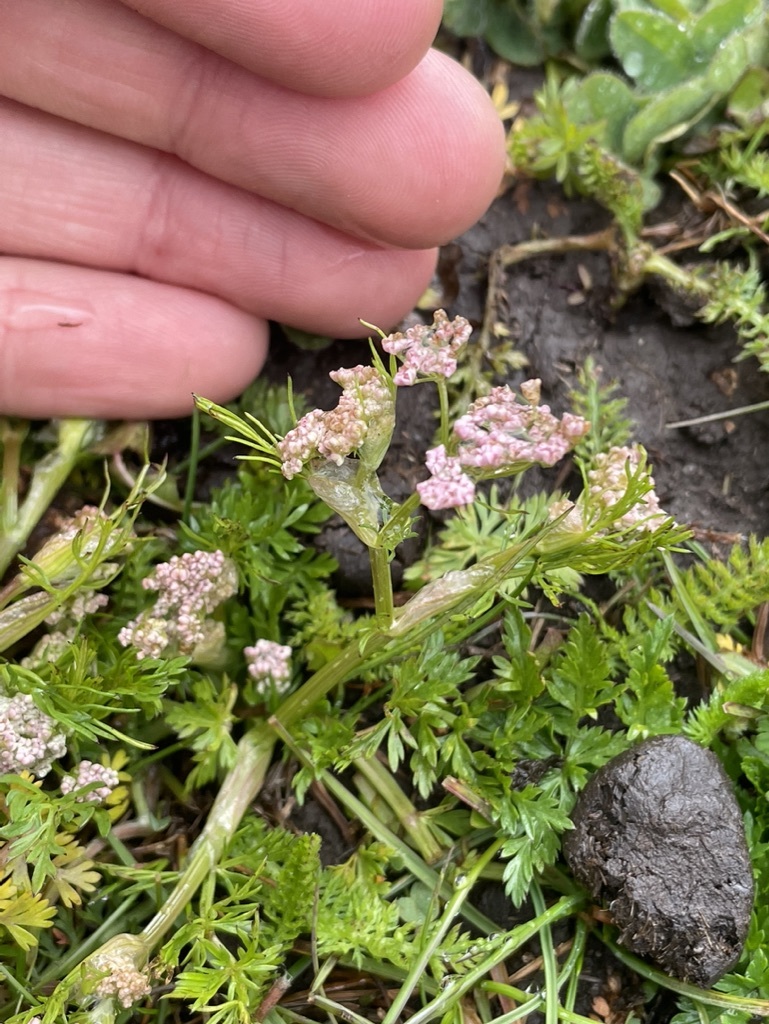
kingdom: Plantae
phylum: Tracheophyta
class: Magnoliopsida
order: Apiales
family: Apiaceae
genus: Carum
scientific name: Carum carvi
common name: Caraway
